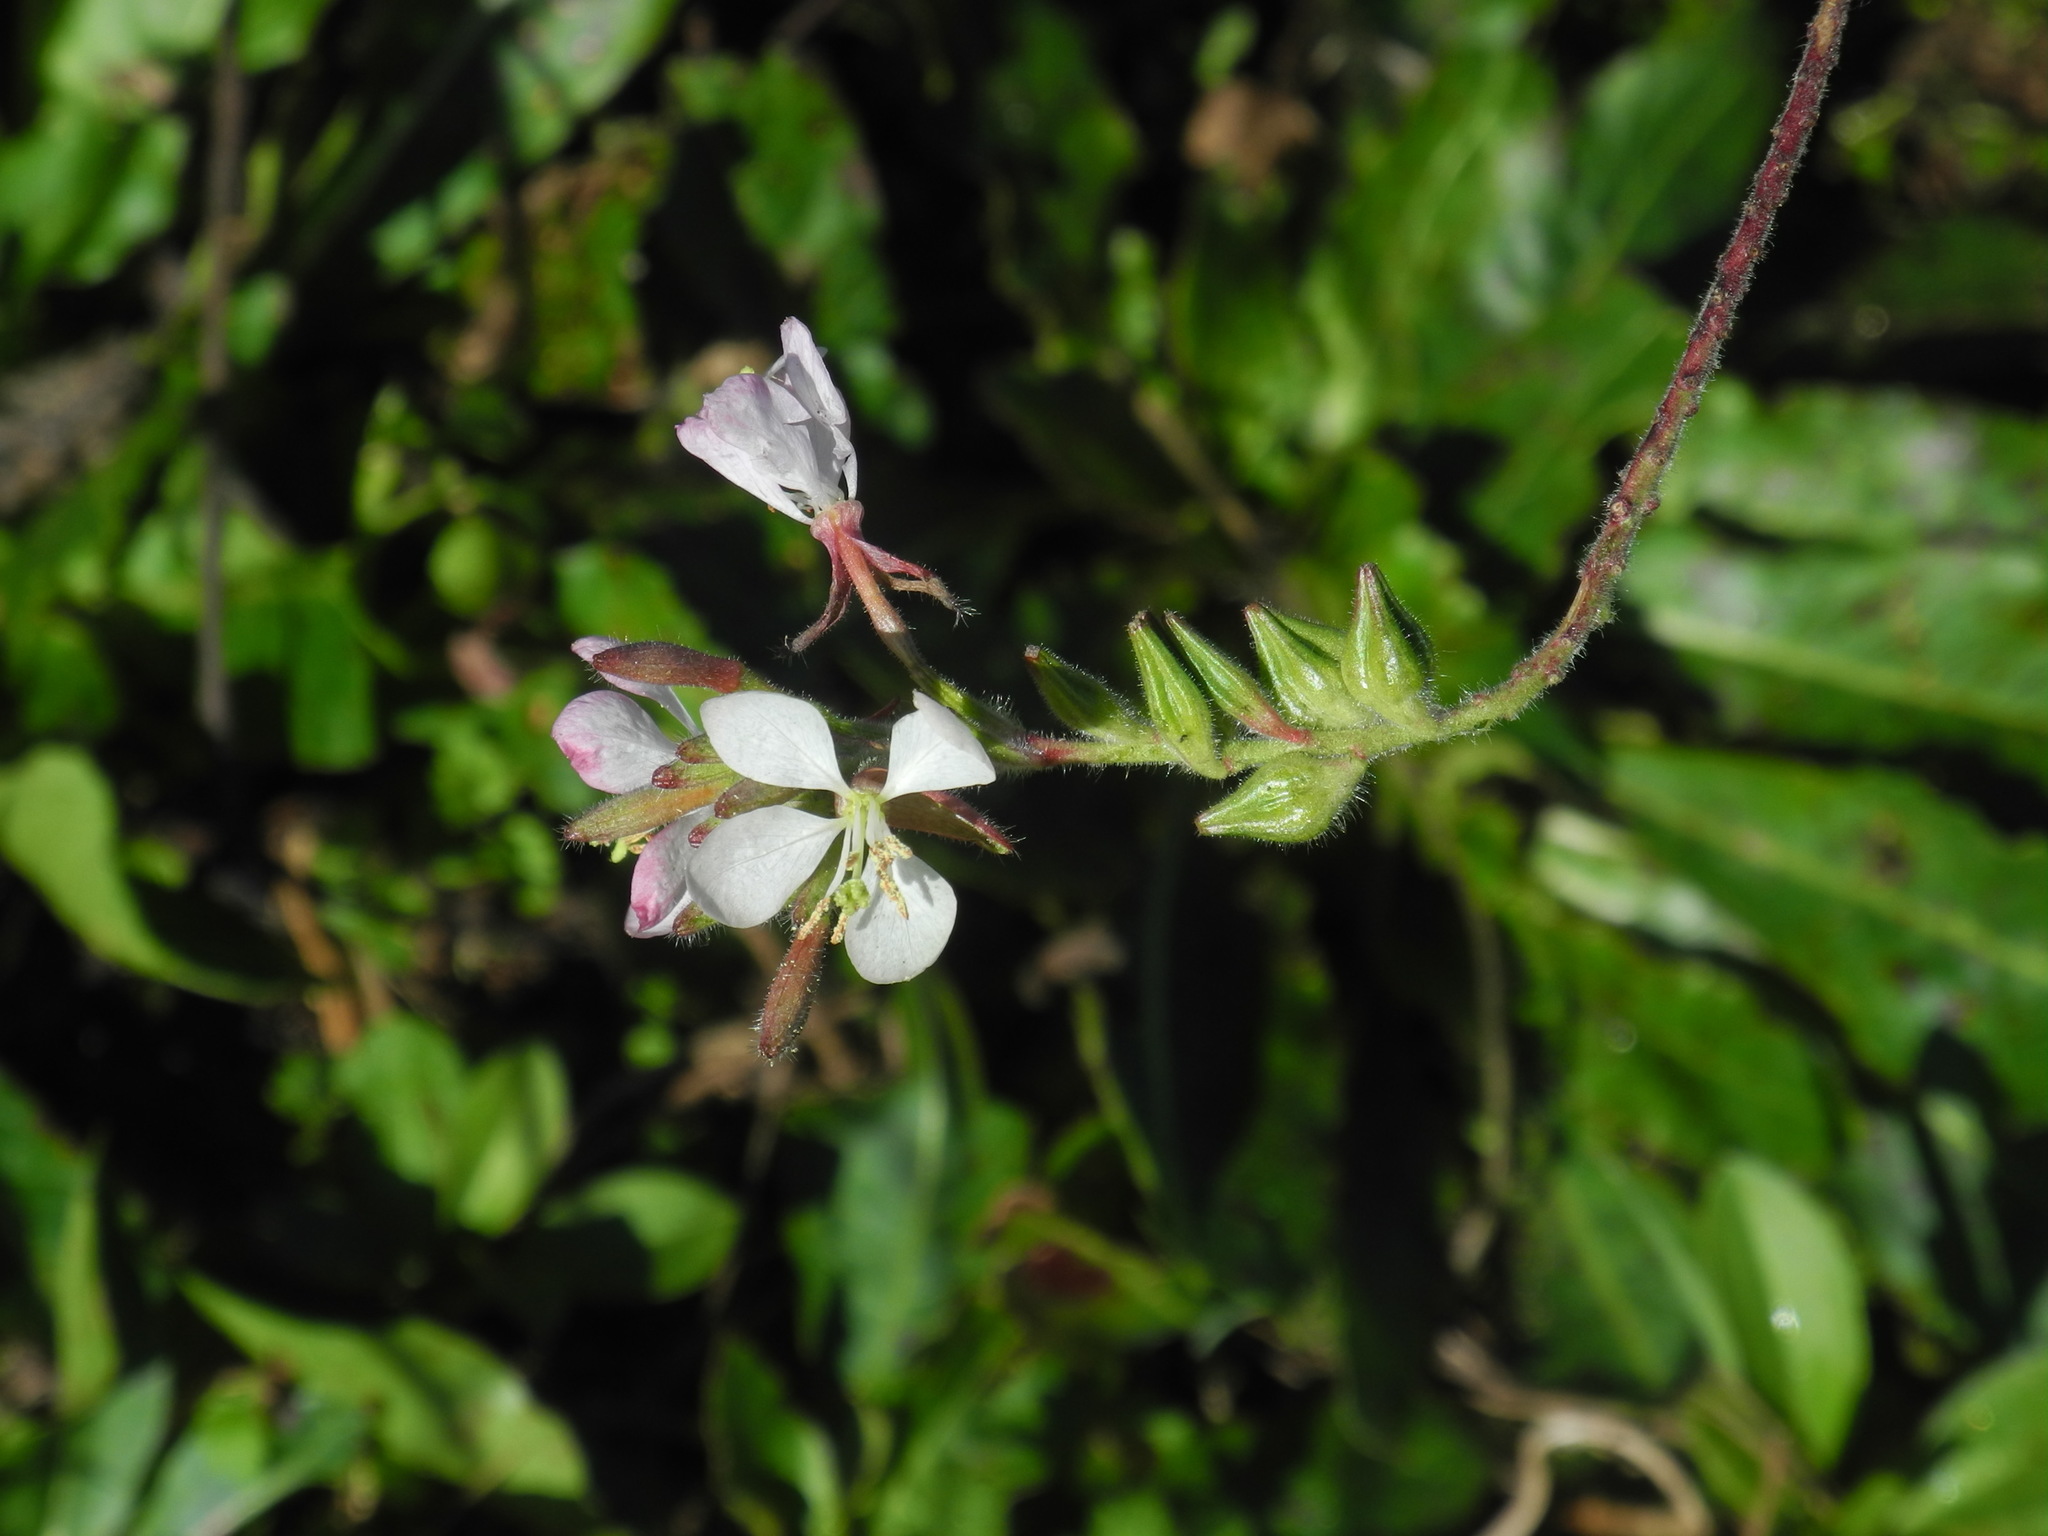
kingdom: Plantae
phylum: Tracheophyta
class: Magnoliopsida
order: Myrtales
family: Onagraceae
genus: Oenothera
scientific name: Oenothera lindheimeri
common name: Lindheimer's beeblossom
